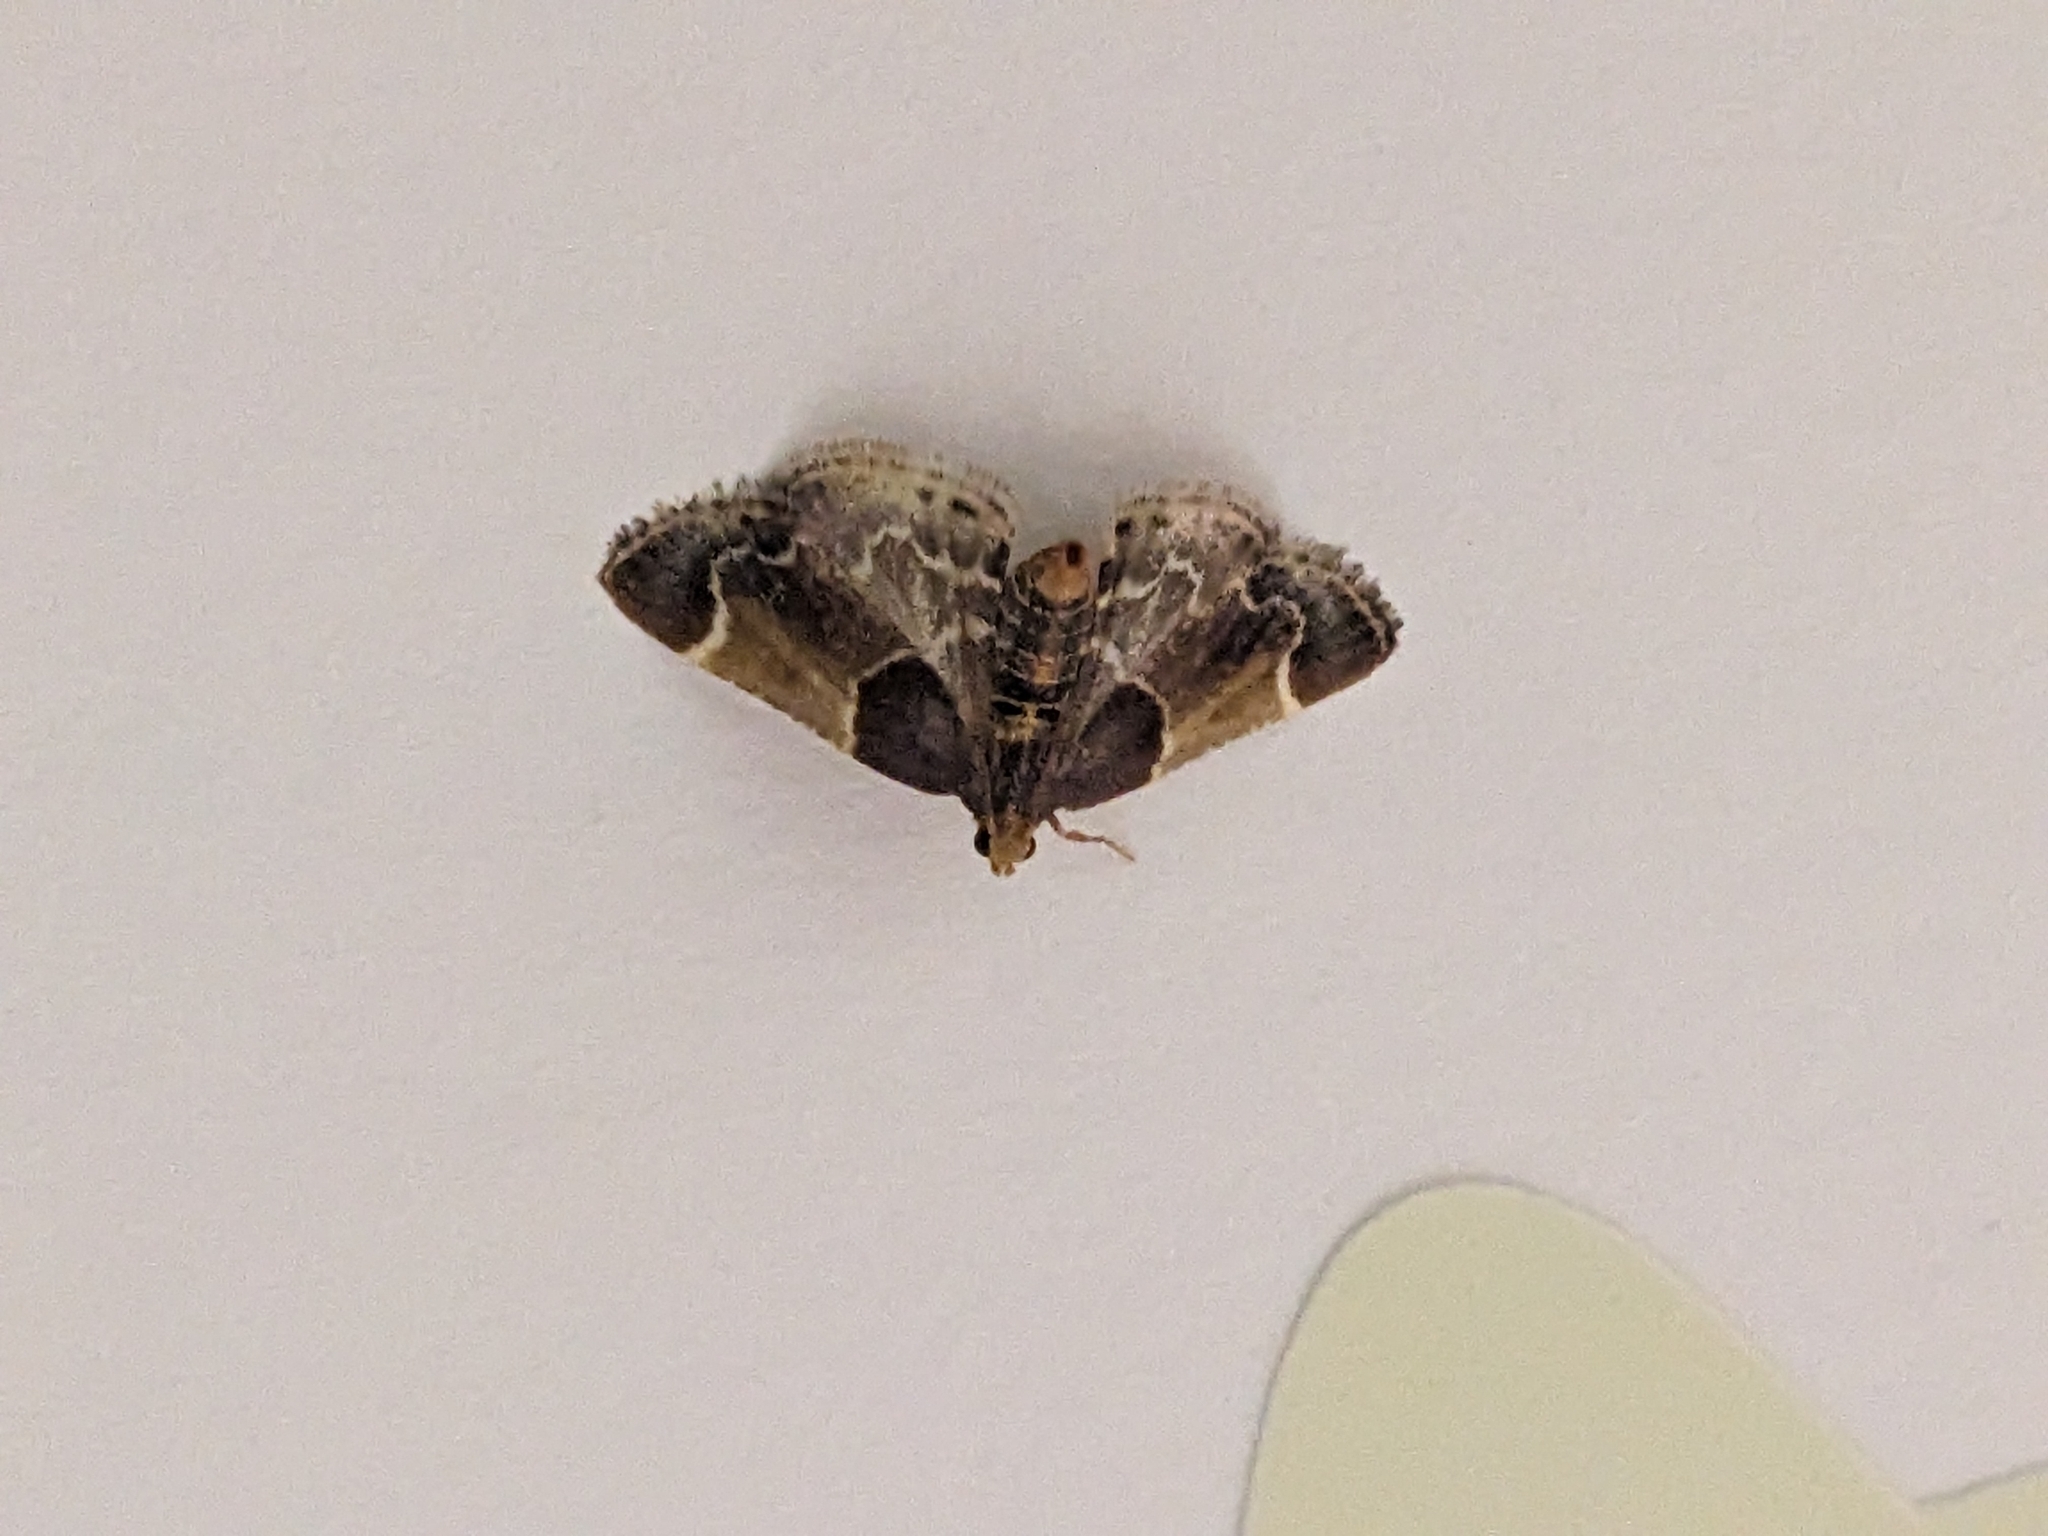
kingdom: Animalia
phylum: Arthropoda
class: Insecta
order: Lepidoptera
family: Pyralidae
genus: Pyralis
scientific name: Pyralis farinalis
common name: Meal moth
